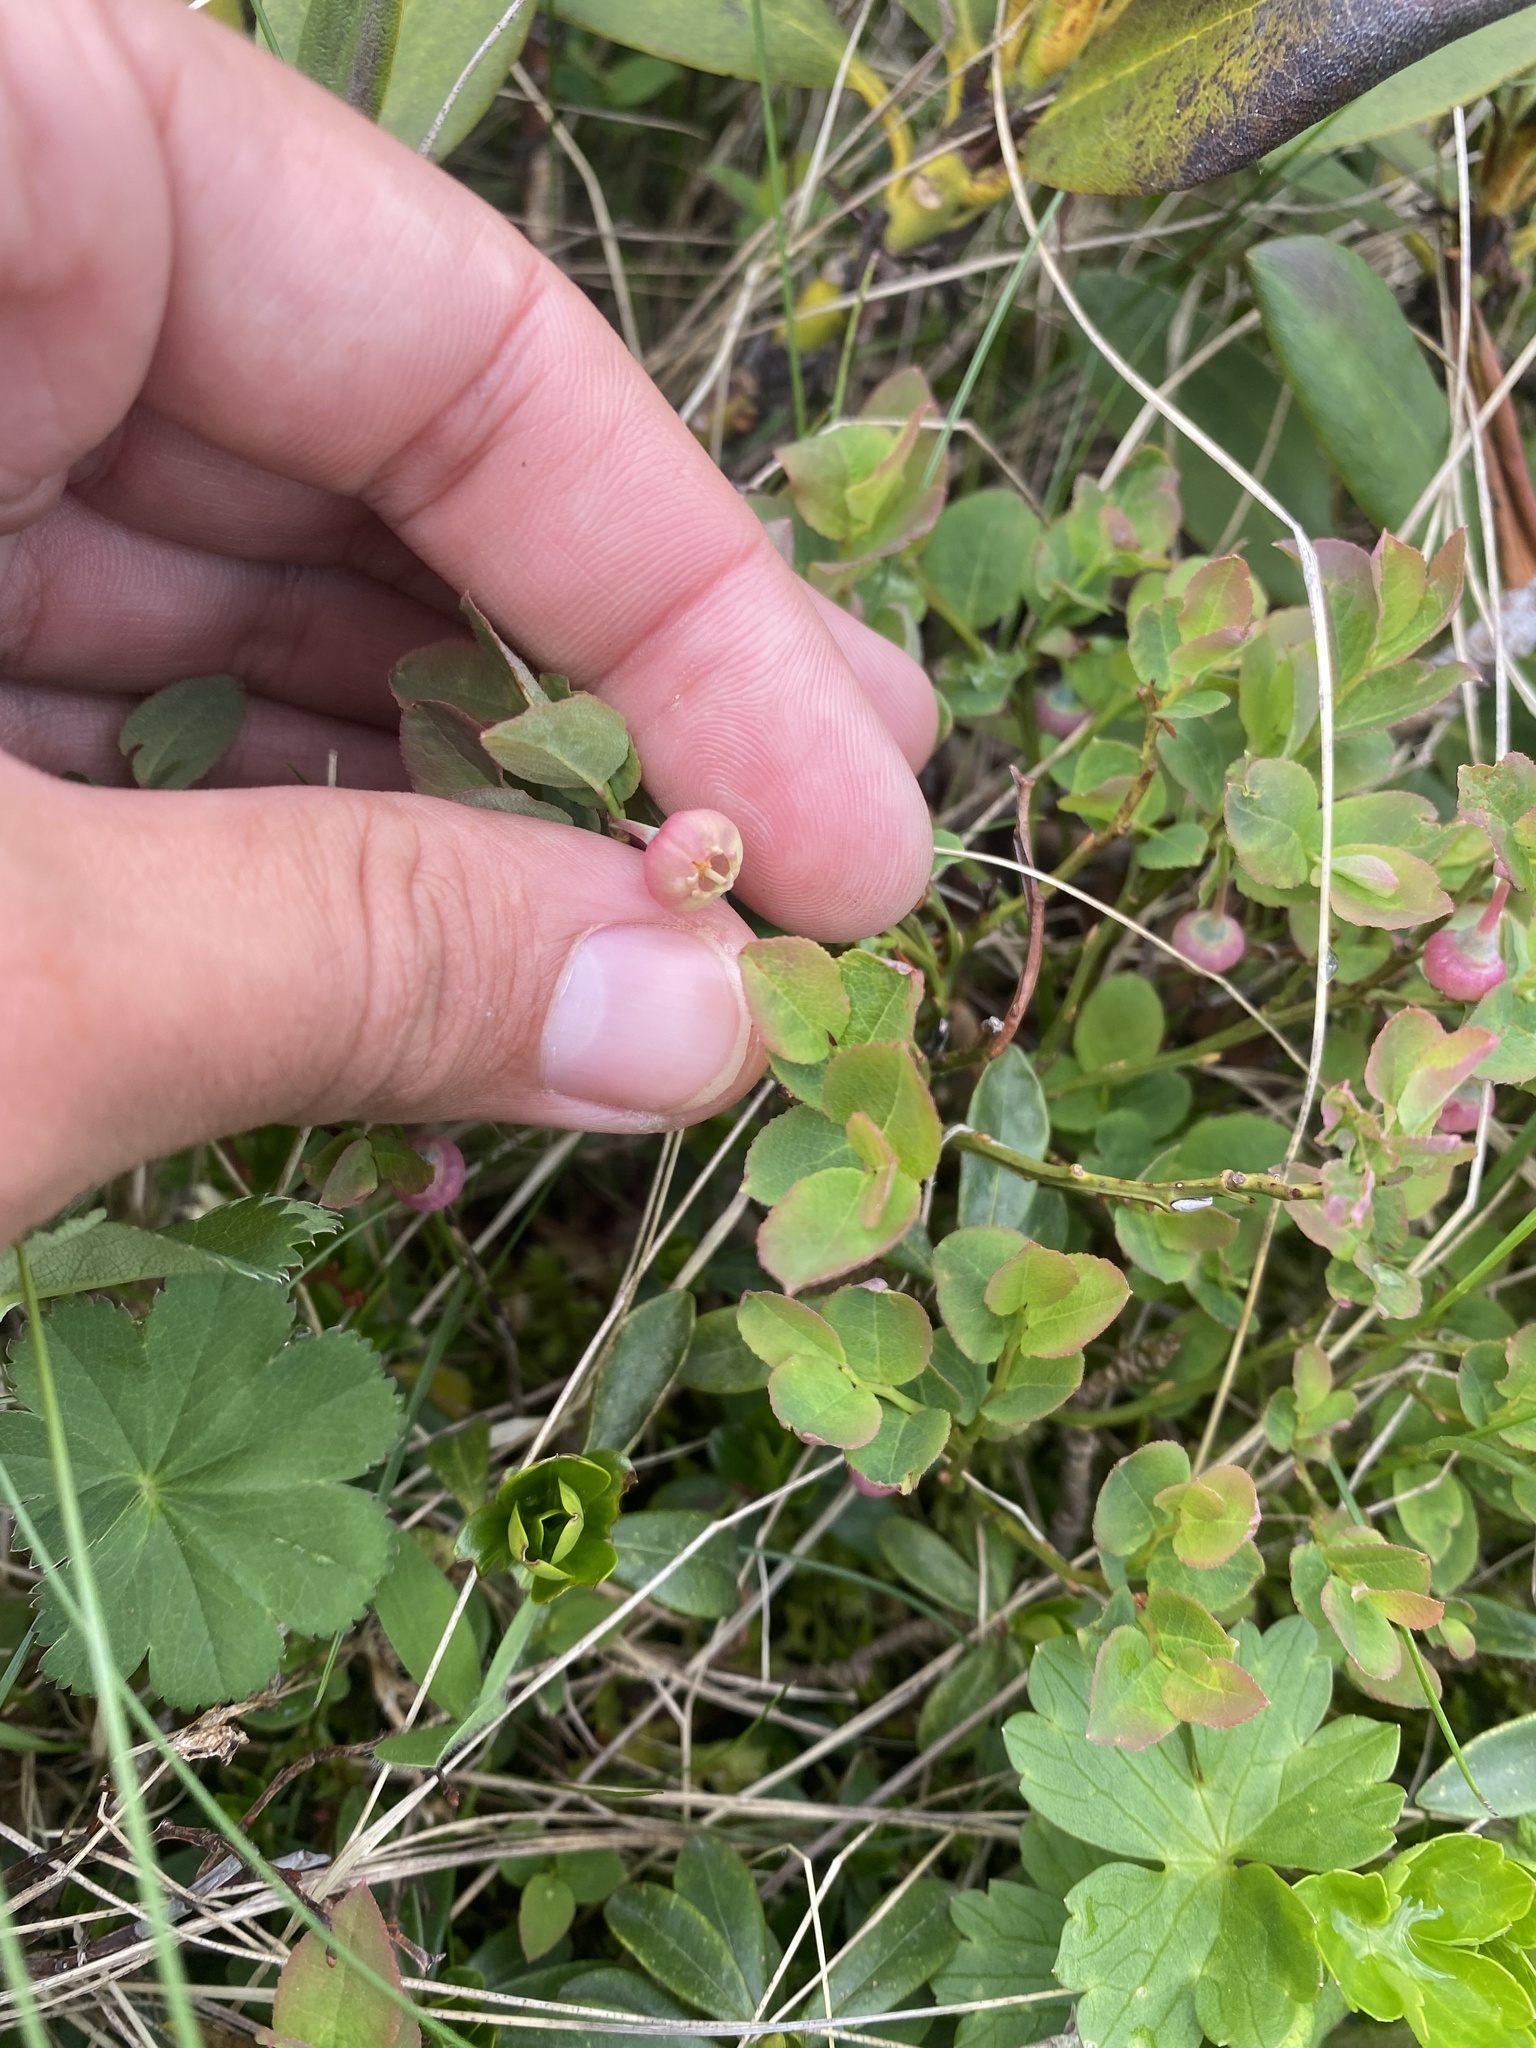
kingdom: Plantae
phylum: Tracheophyta
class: Magnoliopsida
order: Ericales
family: Ericaceae
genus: Vaccinium
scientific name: Vaccinium myrtillus
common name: Bilberry
